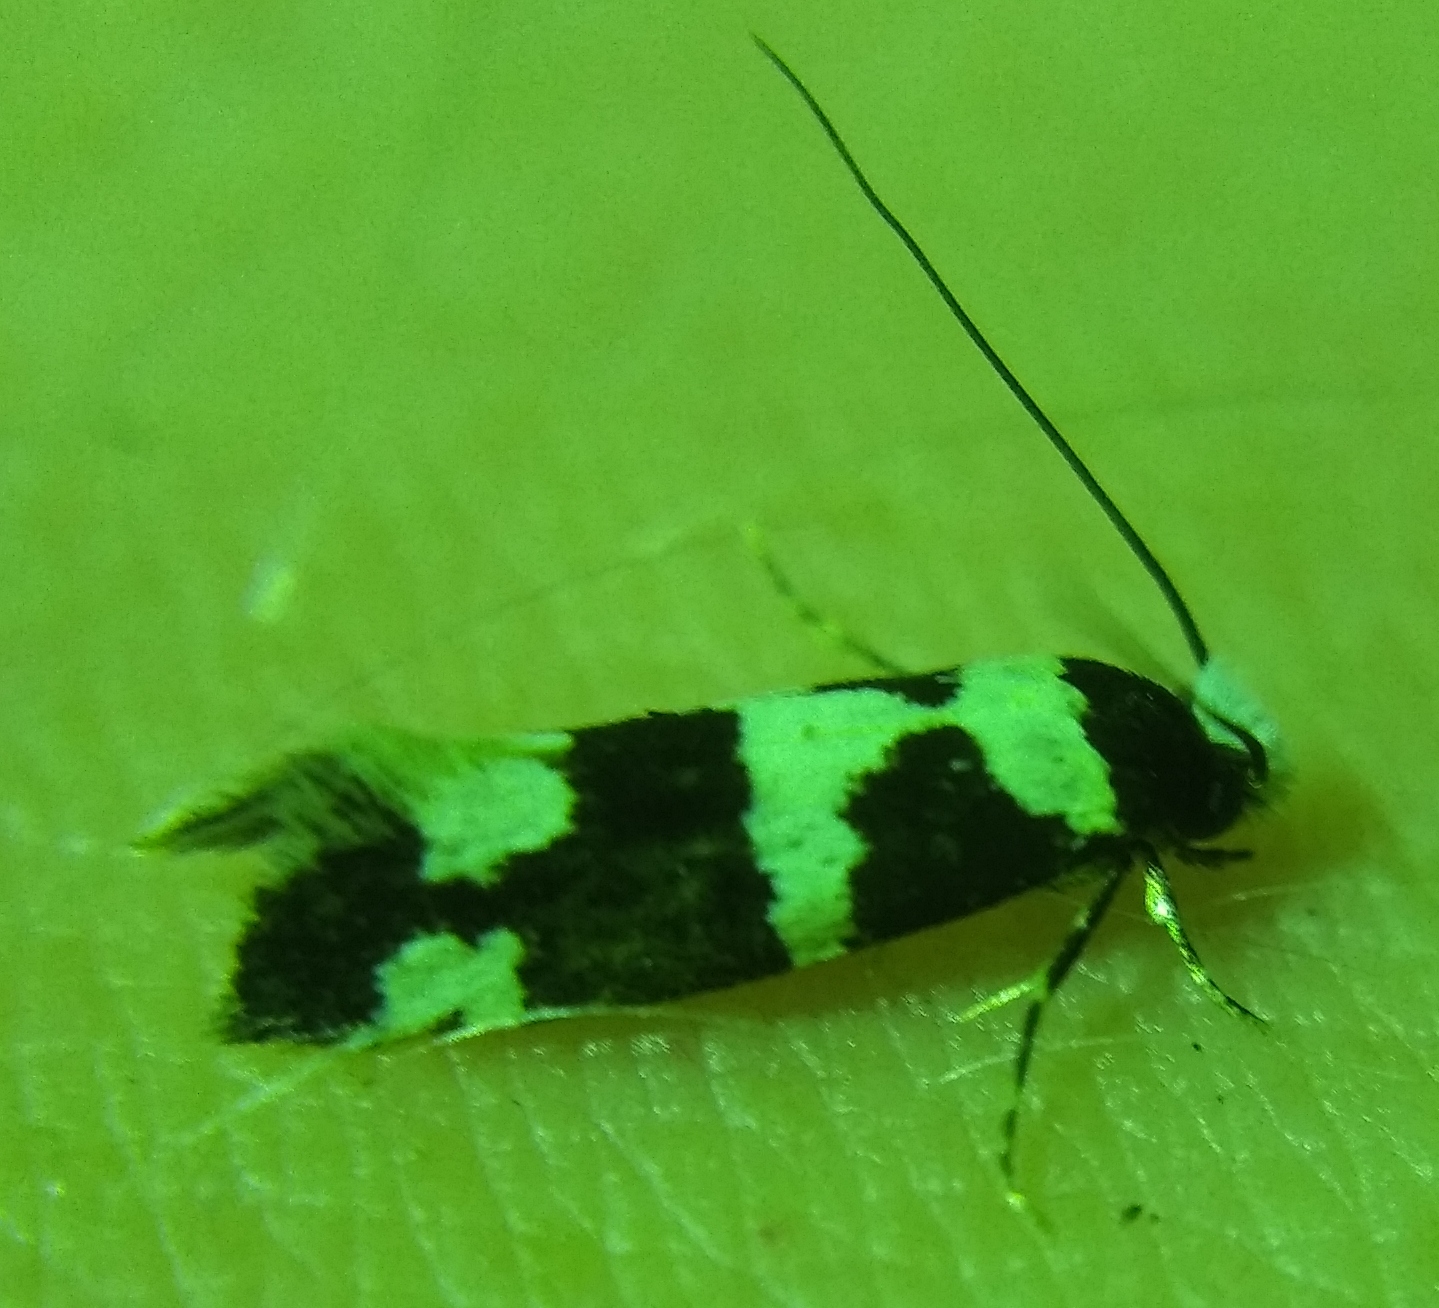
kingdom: Animalia
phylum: Arthropoda
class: Insecta
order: Lepidoptera
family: Tineidae
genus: Neurothaumasia
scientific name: Neurothaumasia ankerella
